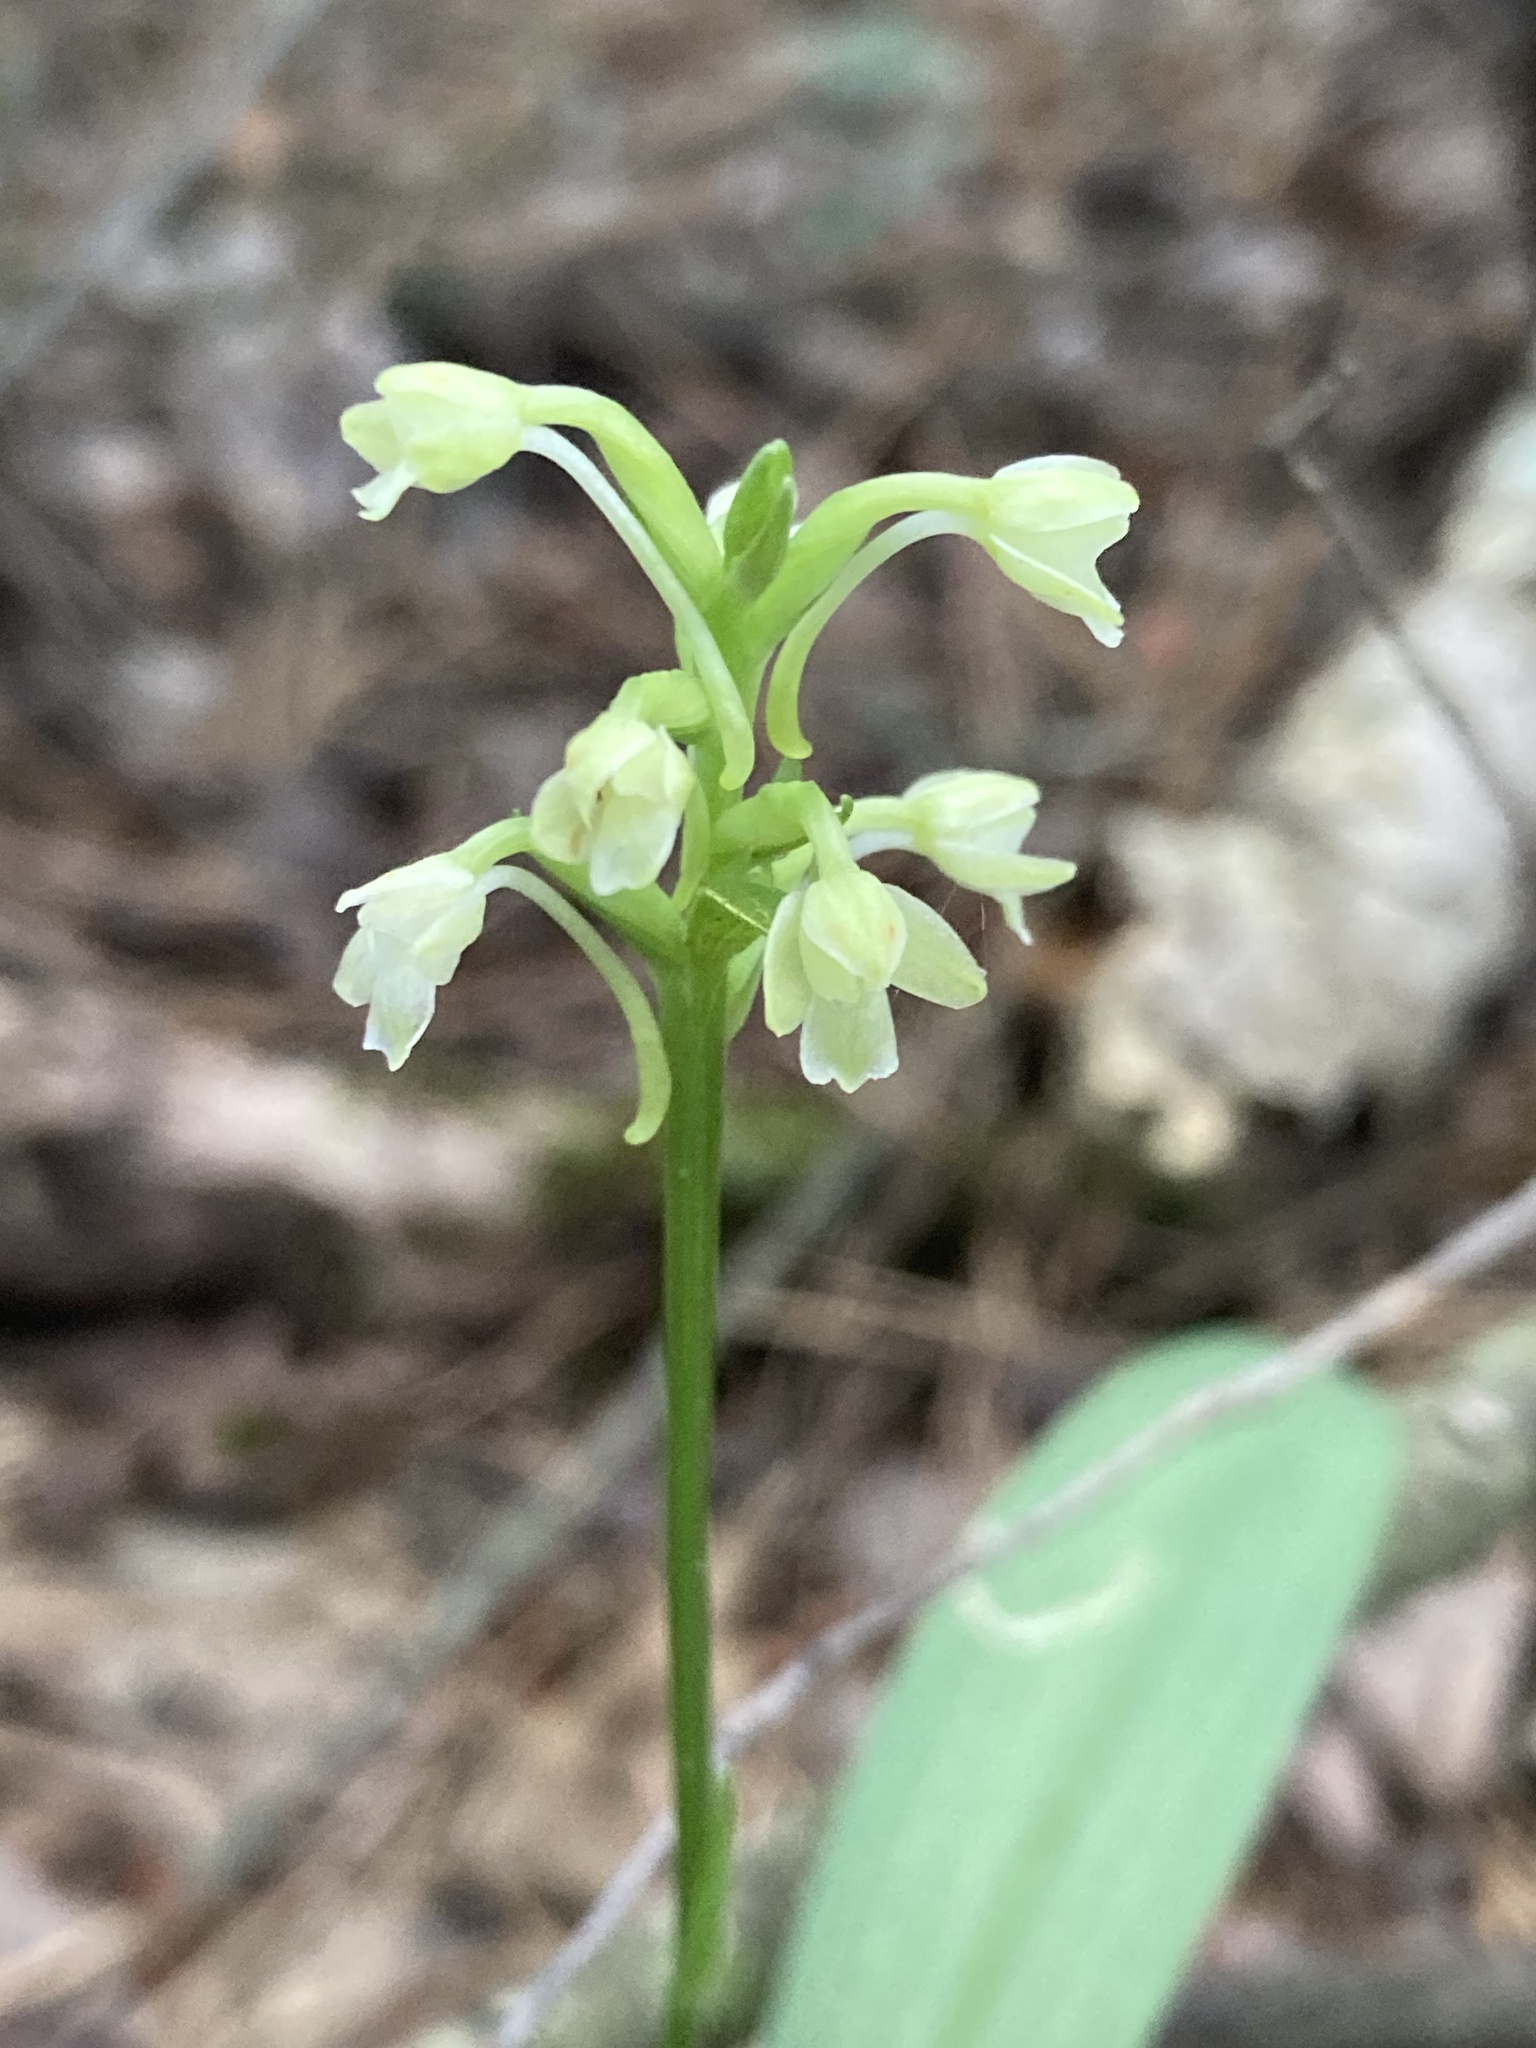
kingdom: Plantae
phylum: Tracheophyta
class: Liliopsida
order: Asparagales
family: Orchidaceae
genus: Platanthera
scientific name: Platanthera clavellata
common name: Club-spur orchid
